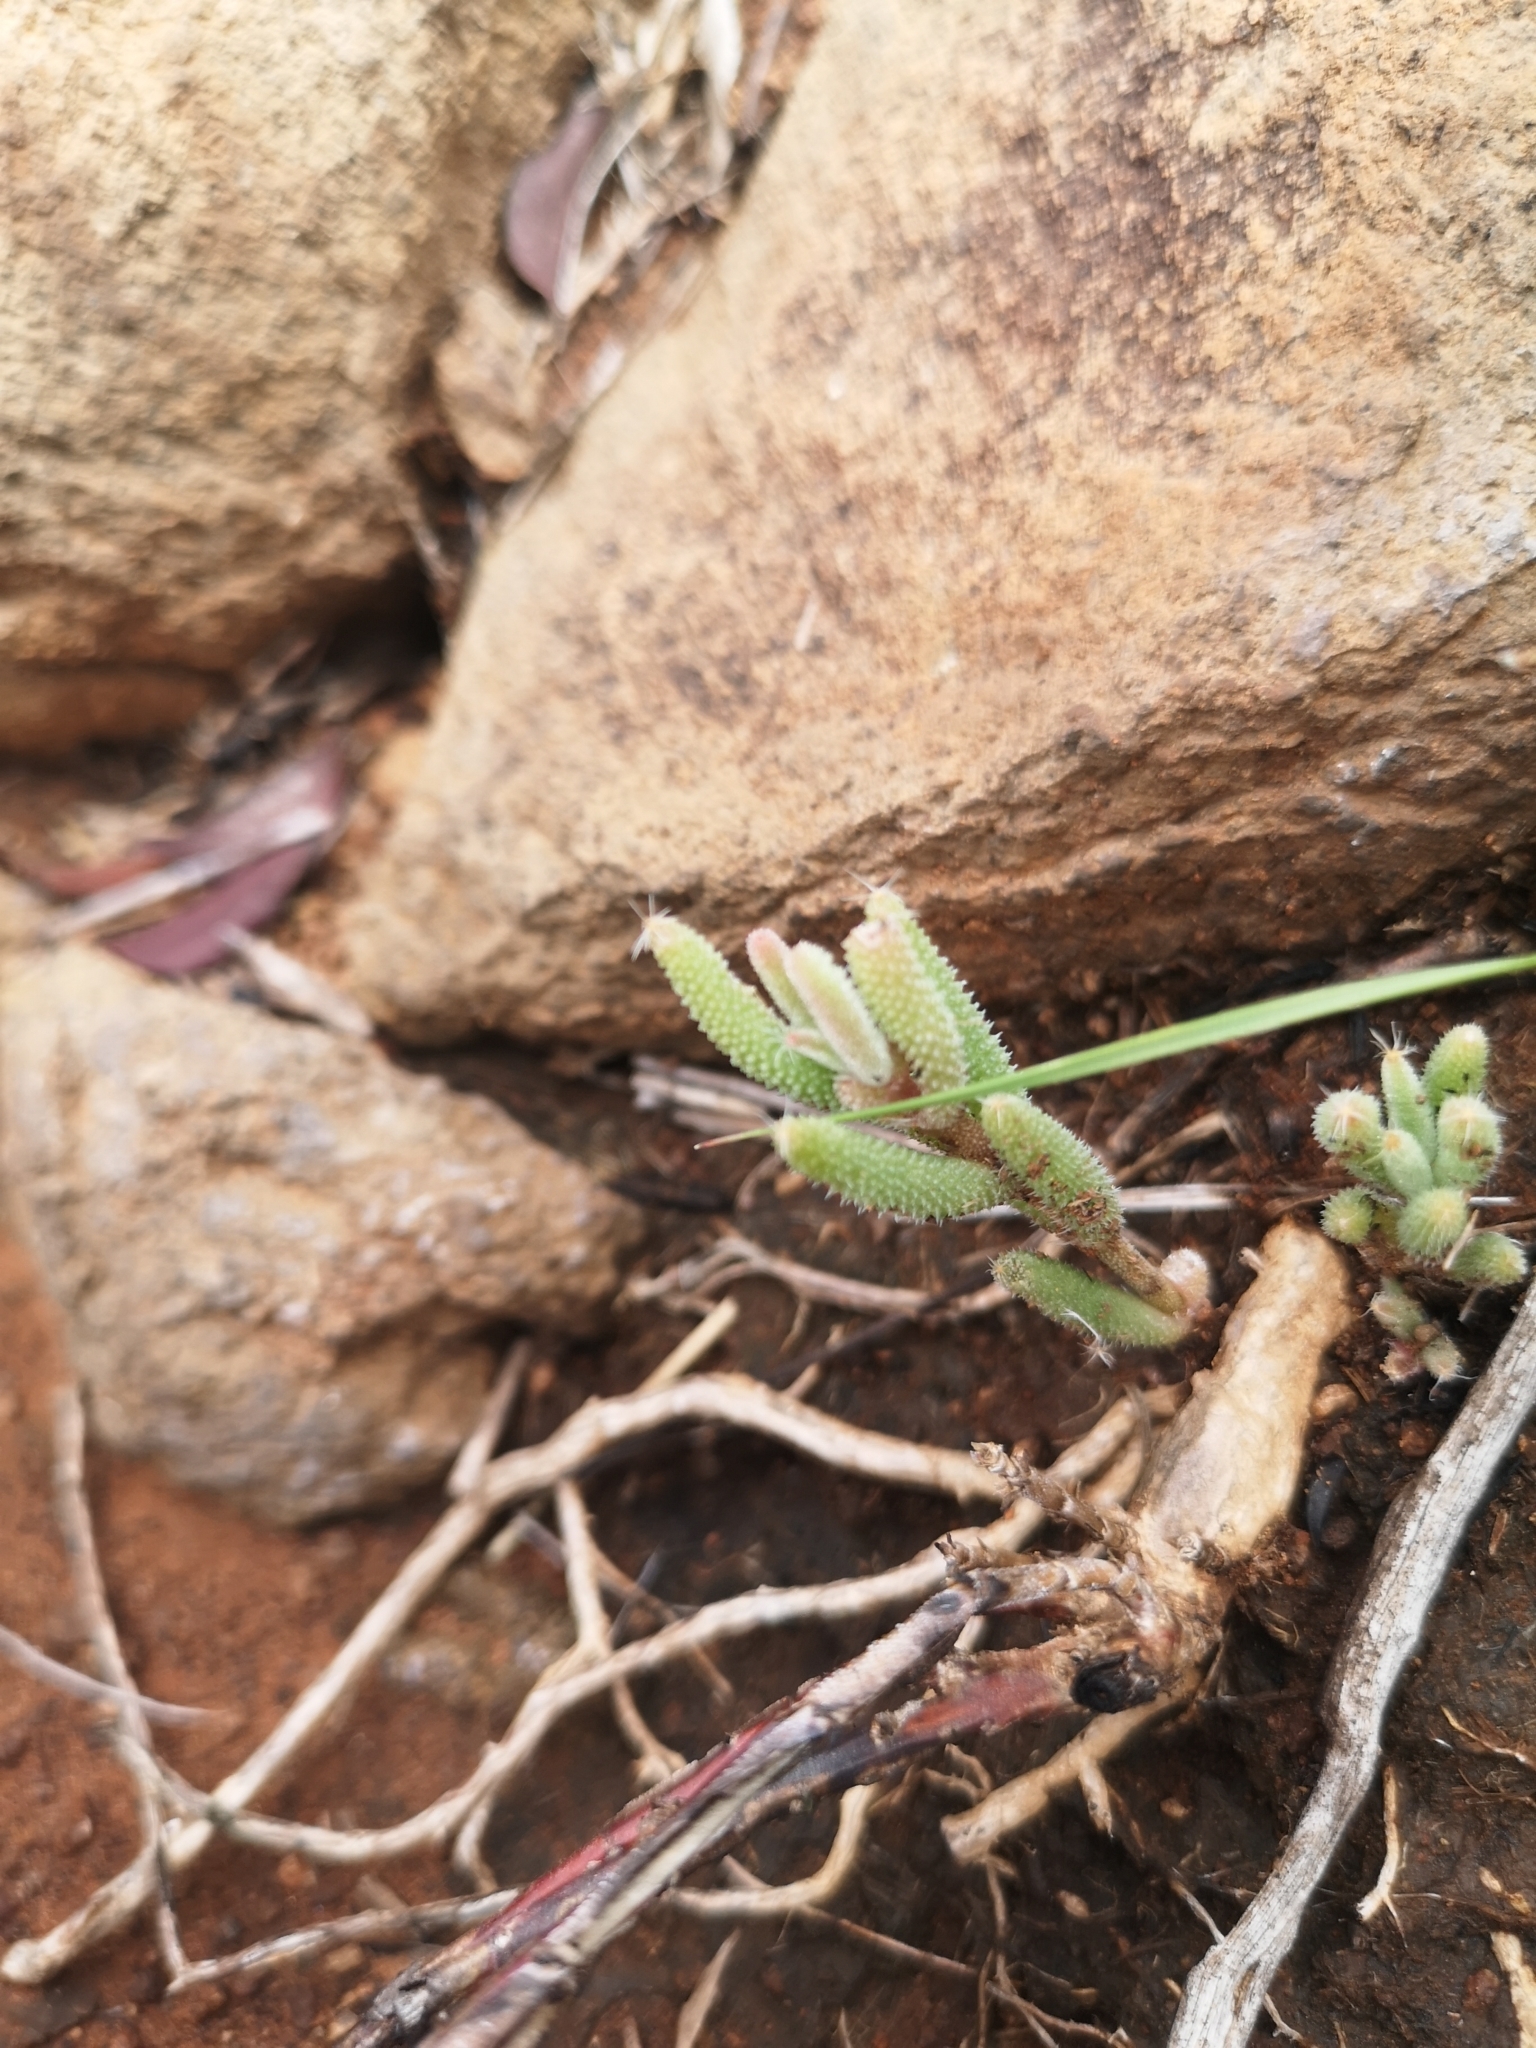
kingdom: Plantae
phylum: Tracheophyta
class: Magnoliopsida
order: Caryophyllales
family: Aizoaceae
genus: Trichodiadema
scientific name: Trichodiadema setuliferum
